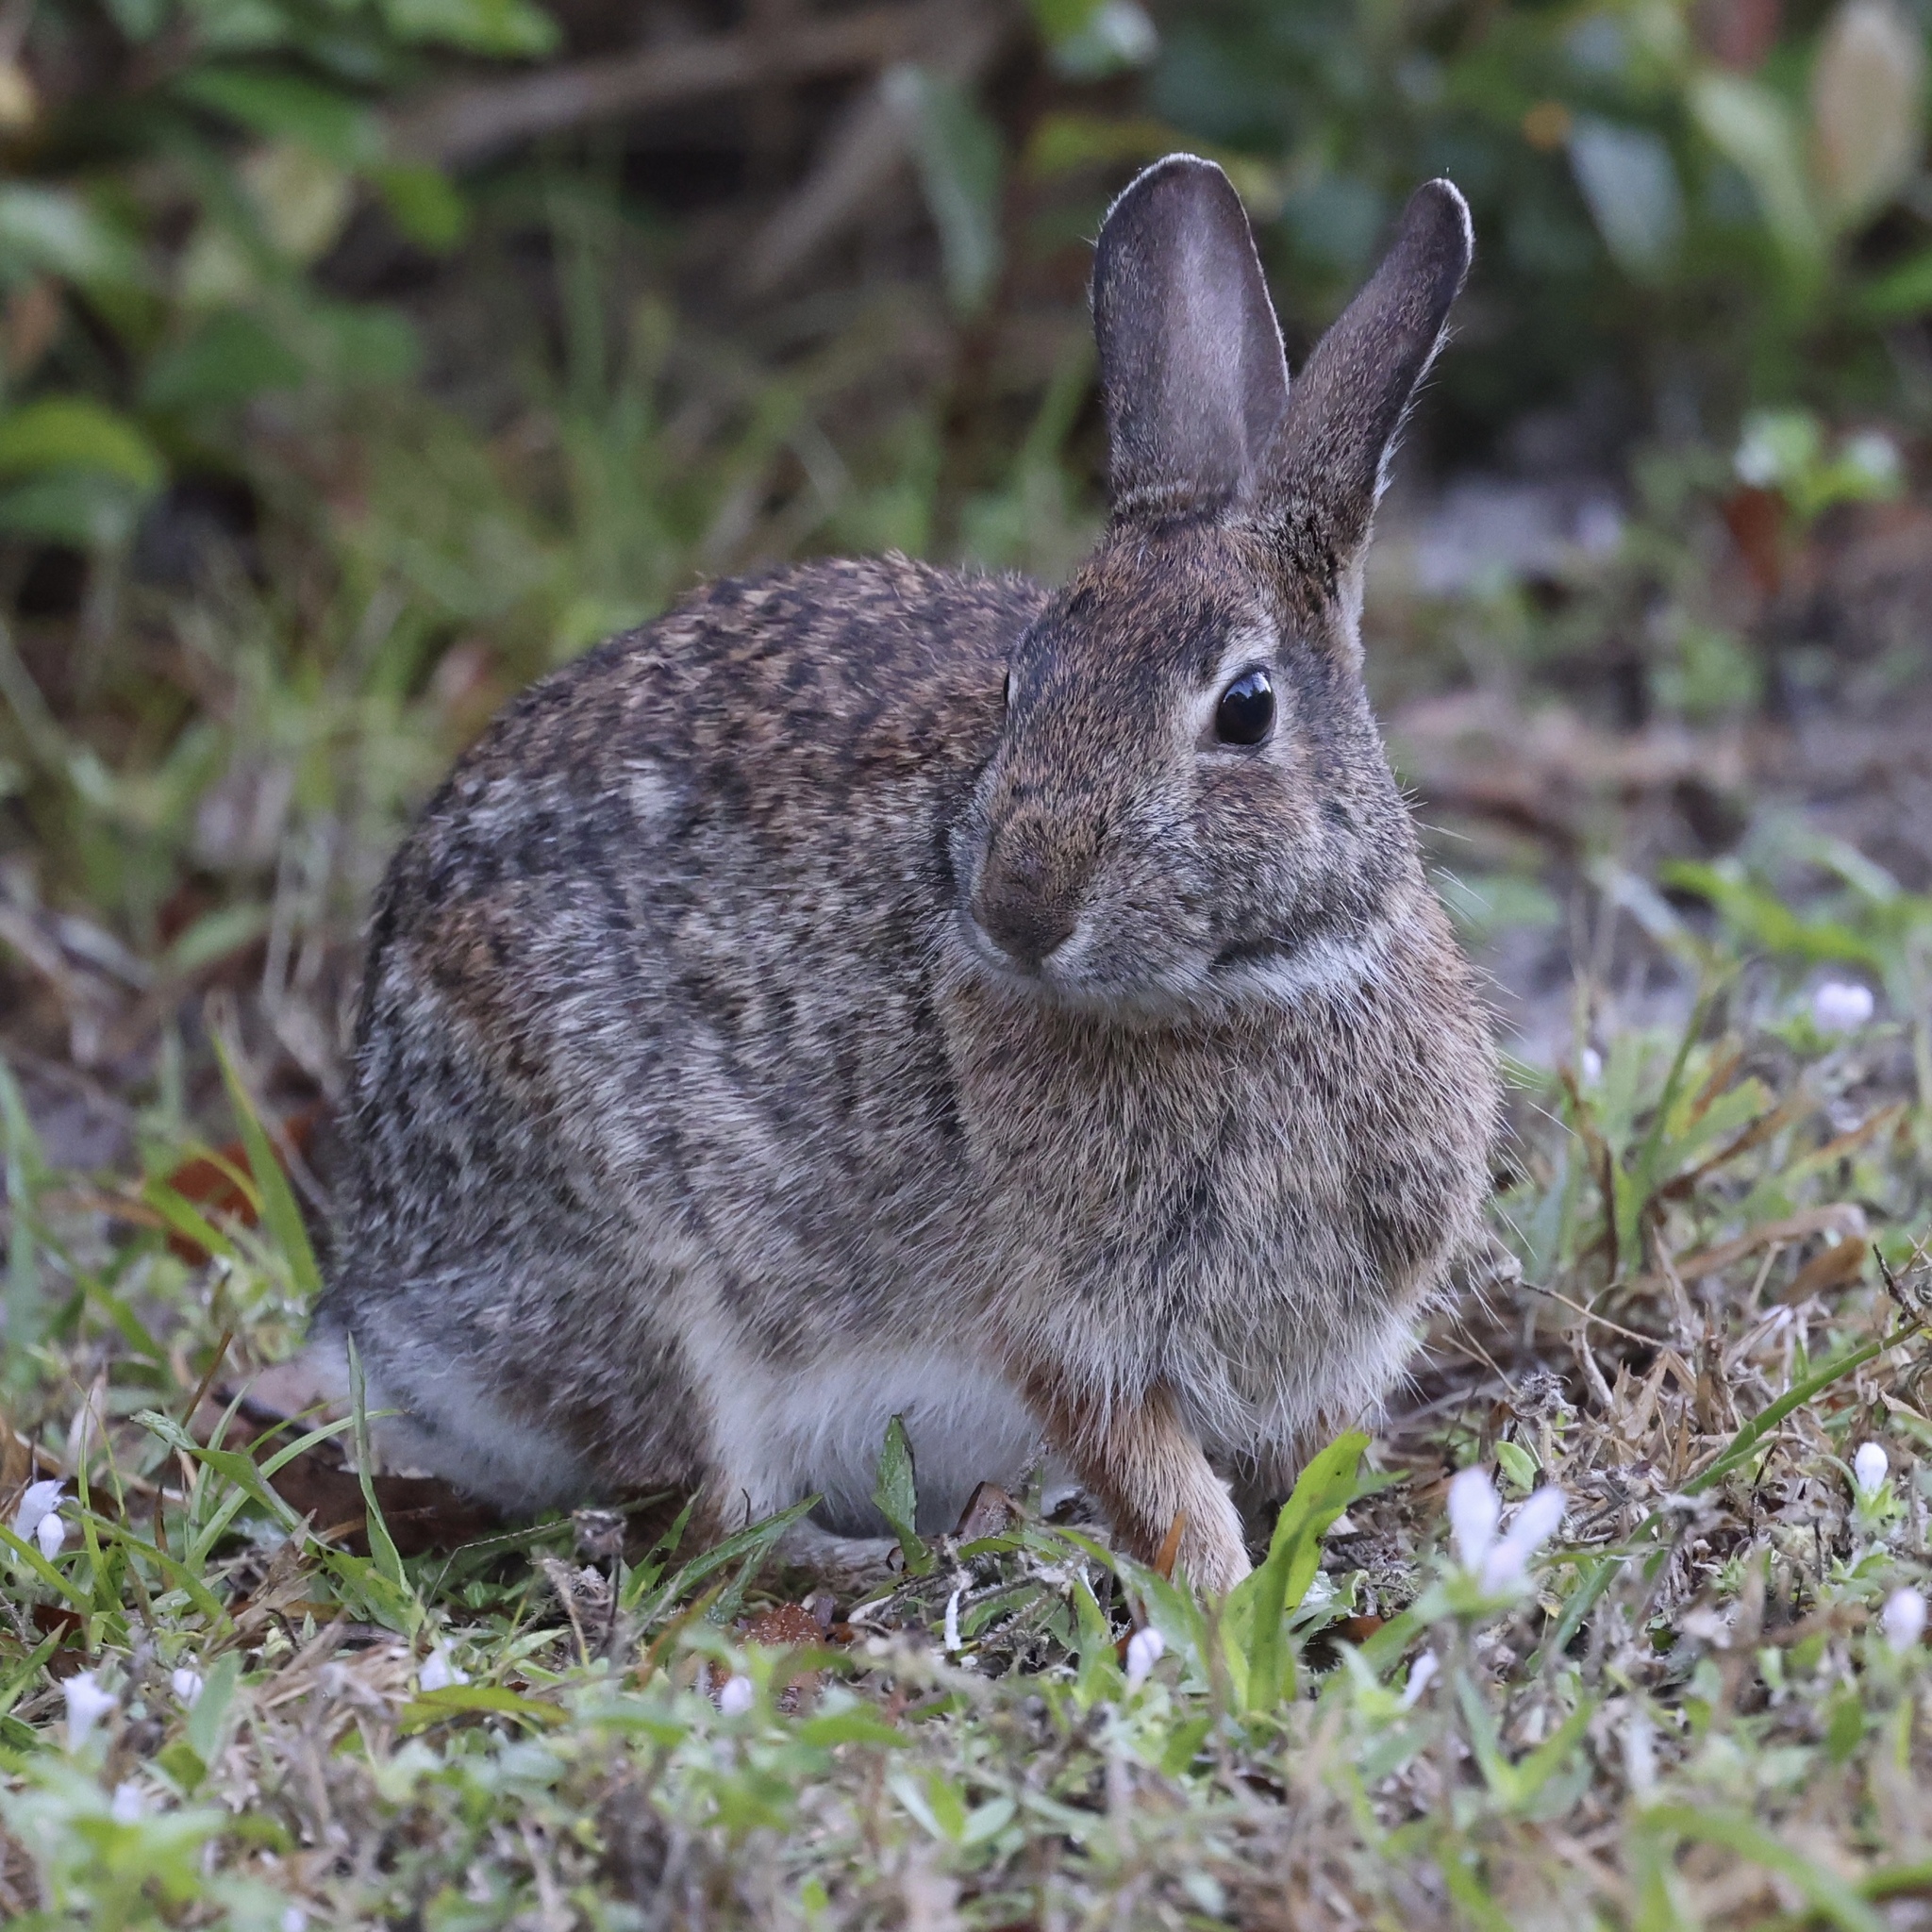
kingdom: Animalia
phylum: Chordata
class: Mammalia
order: Lagomorpha
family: Leporidae
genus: Sylvilagus
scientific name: Sylvilagus floridanus
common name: Eastern cottontail
